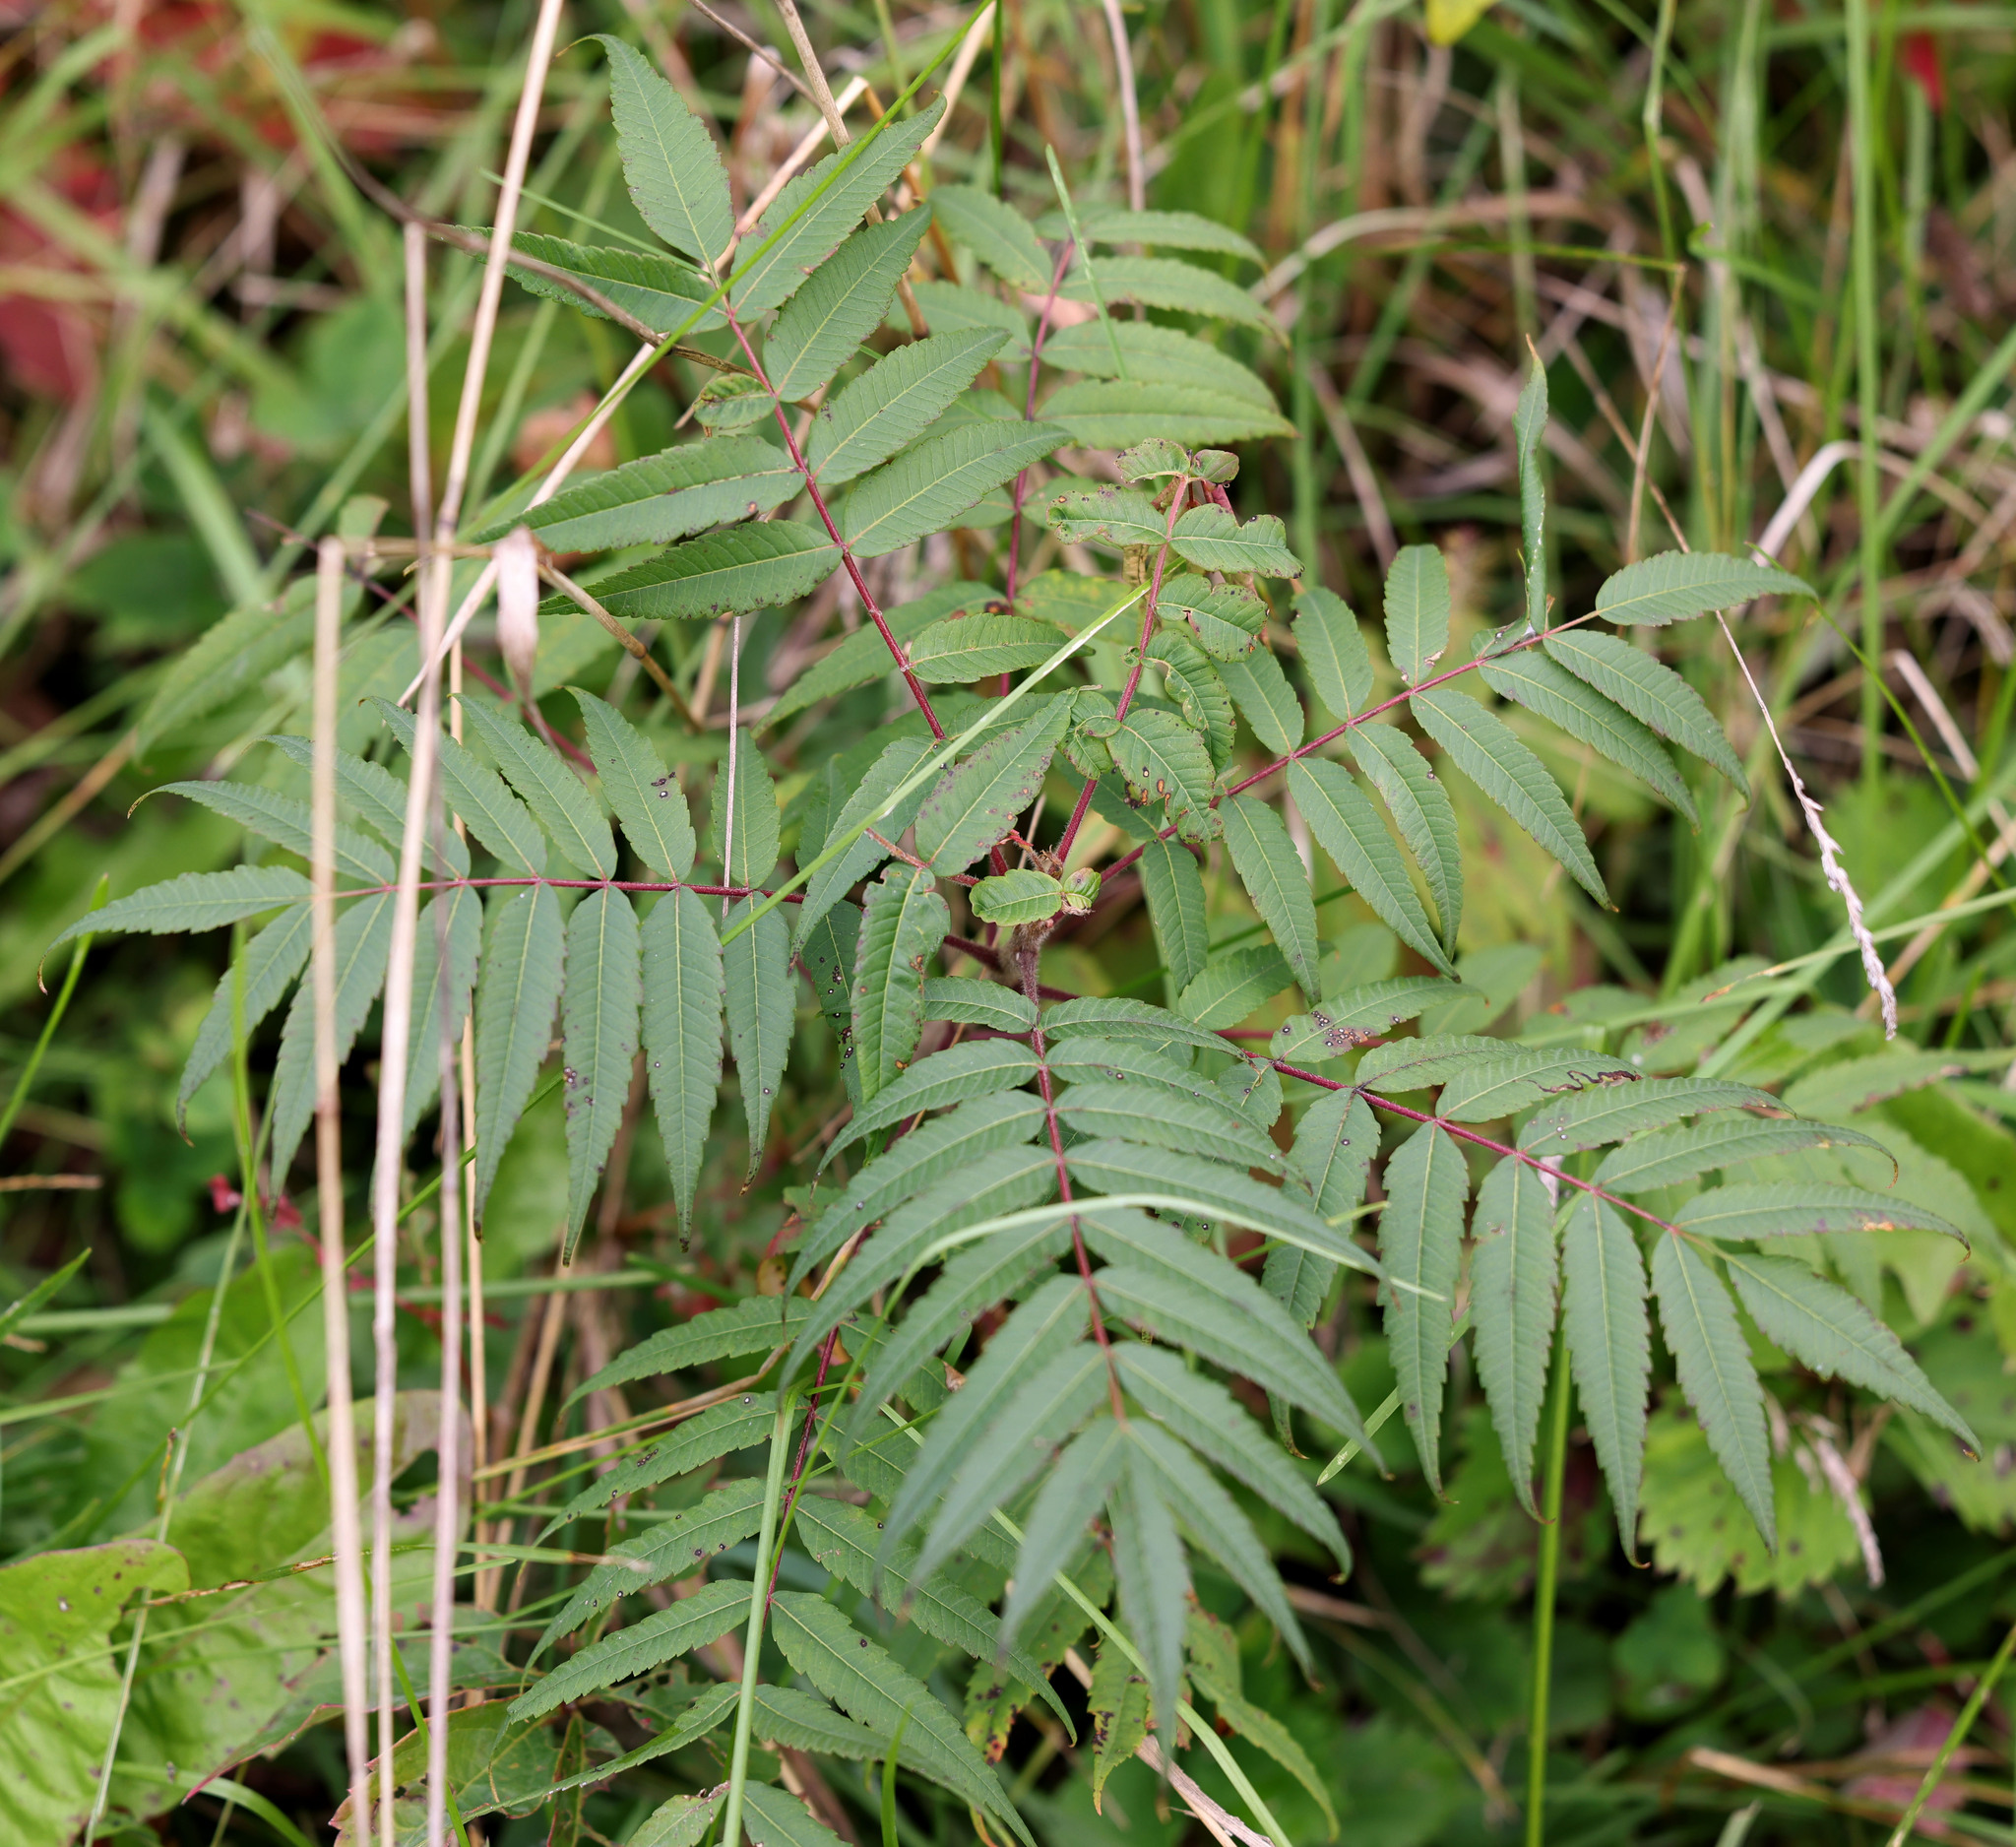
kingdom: Plantae
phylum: Tracheophyta
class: Magnoliopsida
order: Sapindales
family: Anacardiaceae
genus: Rhus
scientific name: Rhus typhina
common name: Staghorn sumac
